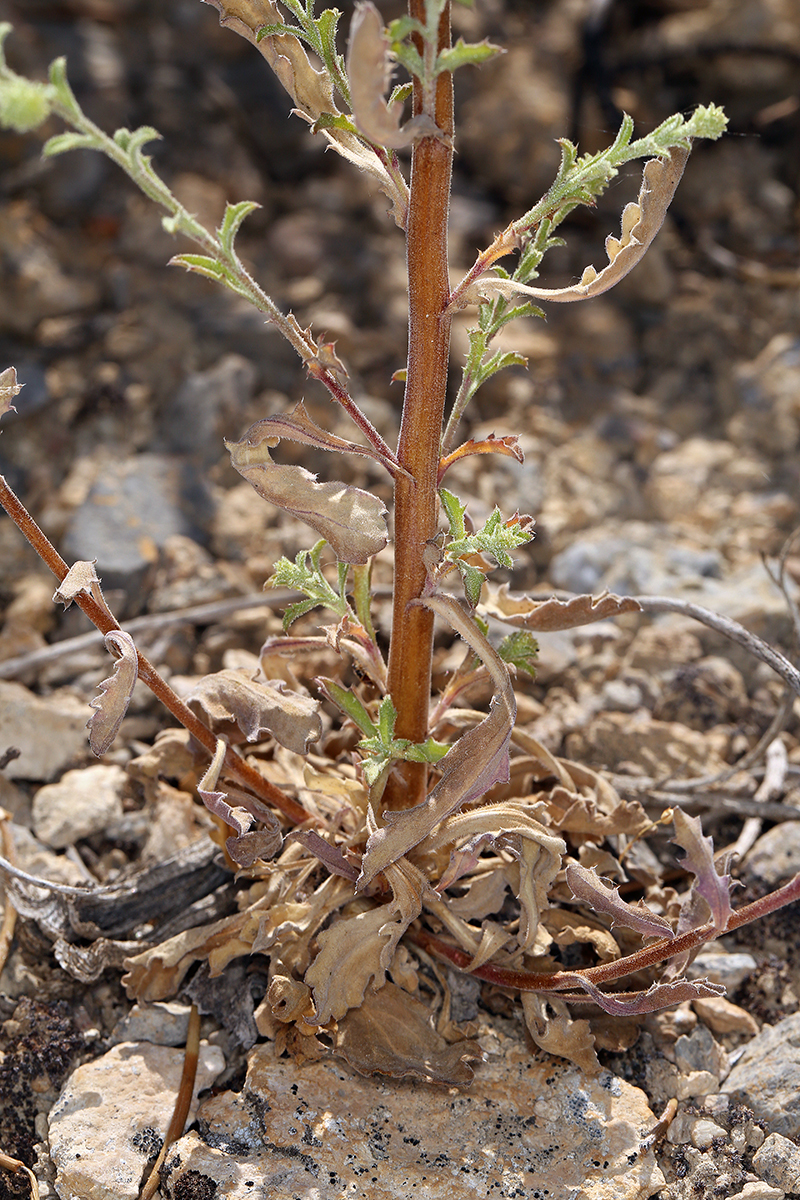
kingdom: Plantae
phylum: Tracheophyta
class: Magnoliopsida
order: Asterales
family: Asteraceae
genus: Dieteria
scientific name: Dieteria canescens
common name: Hoary-aster
